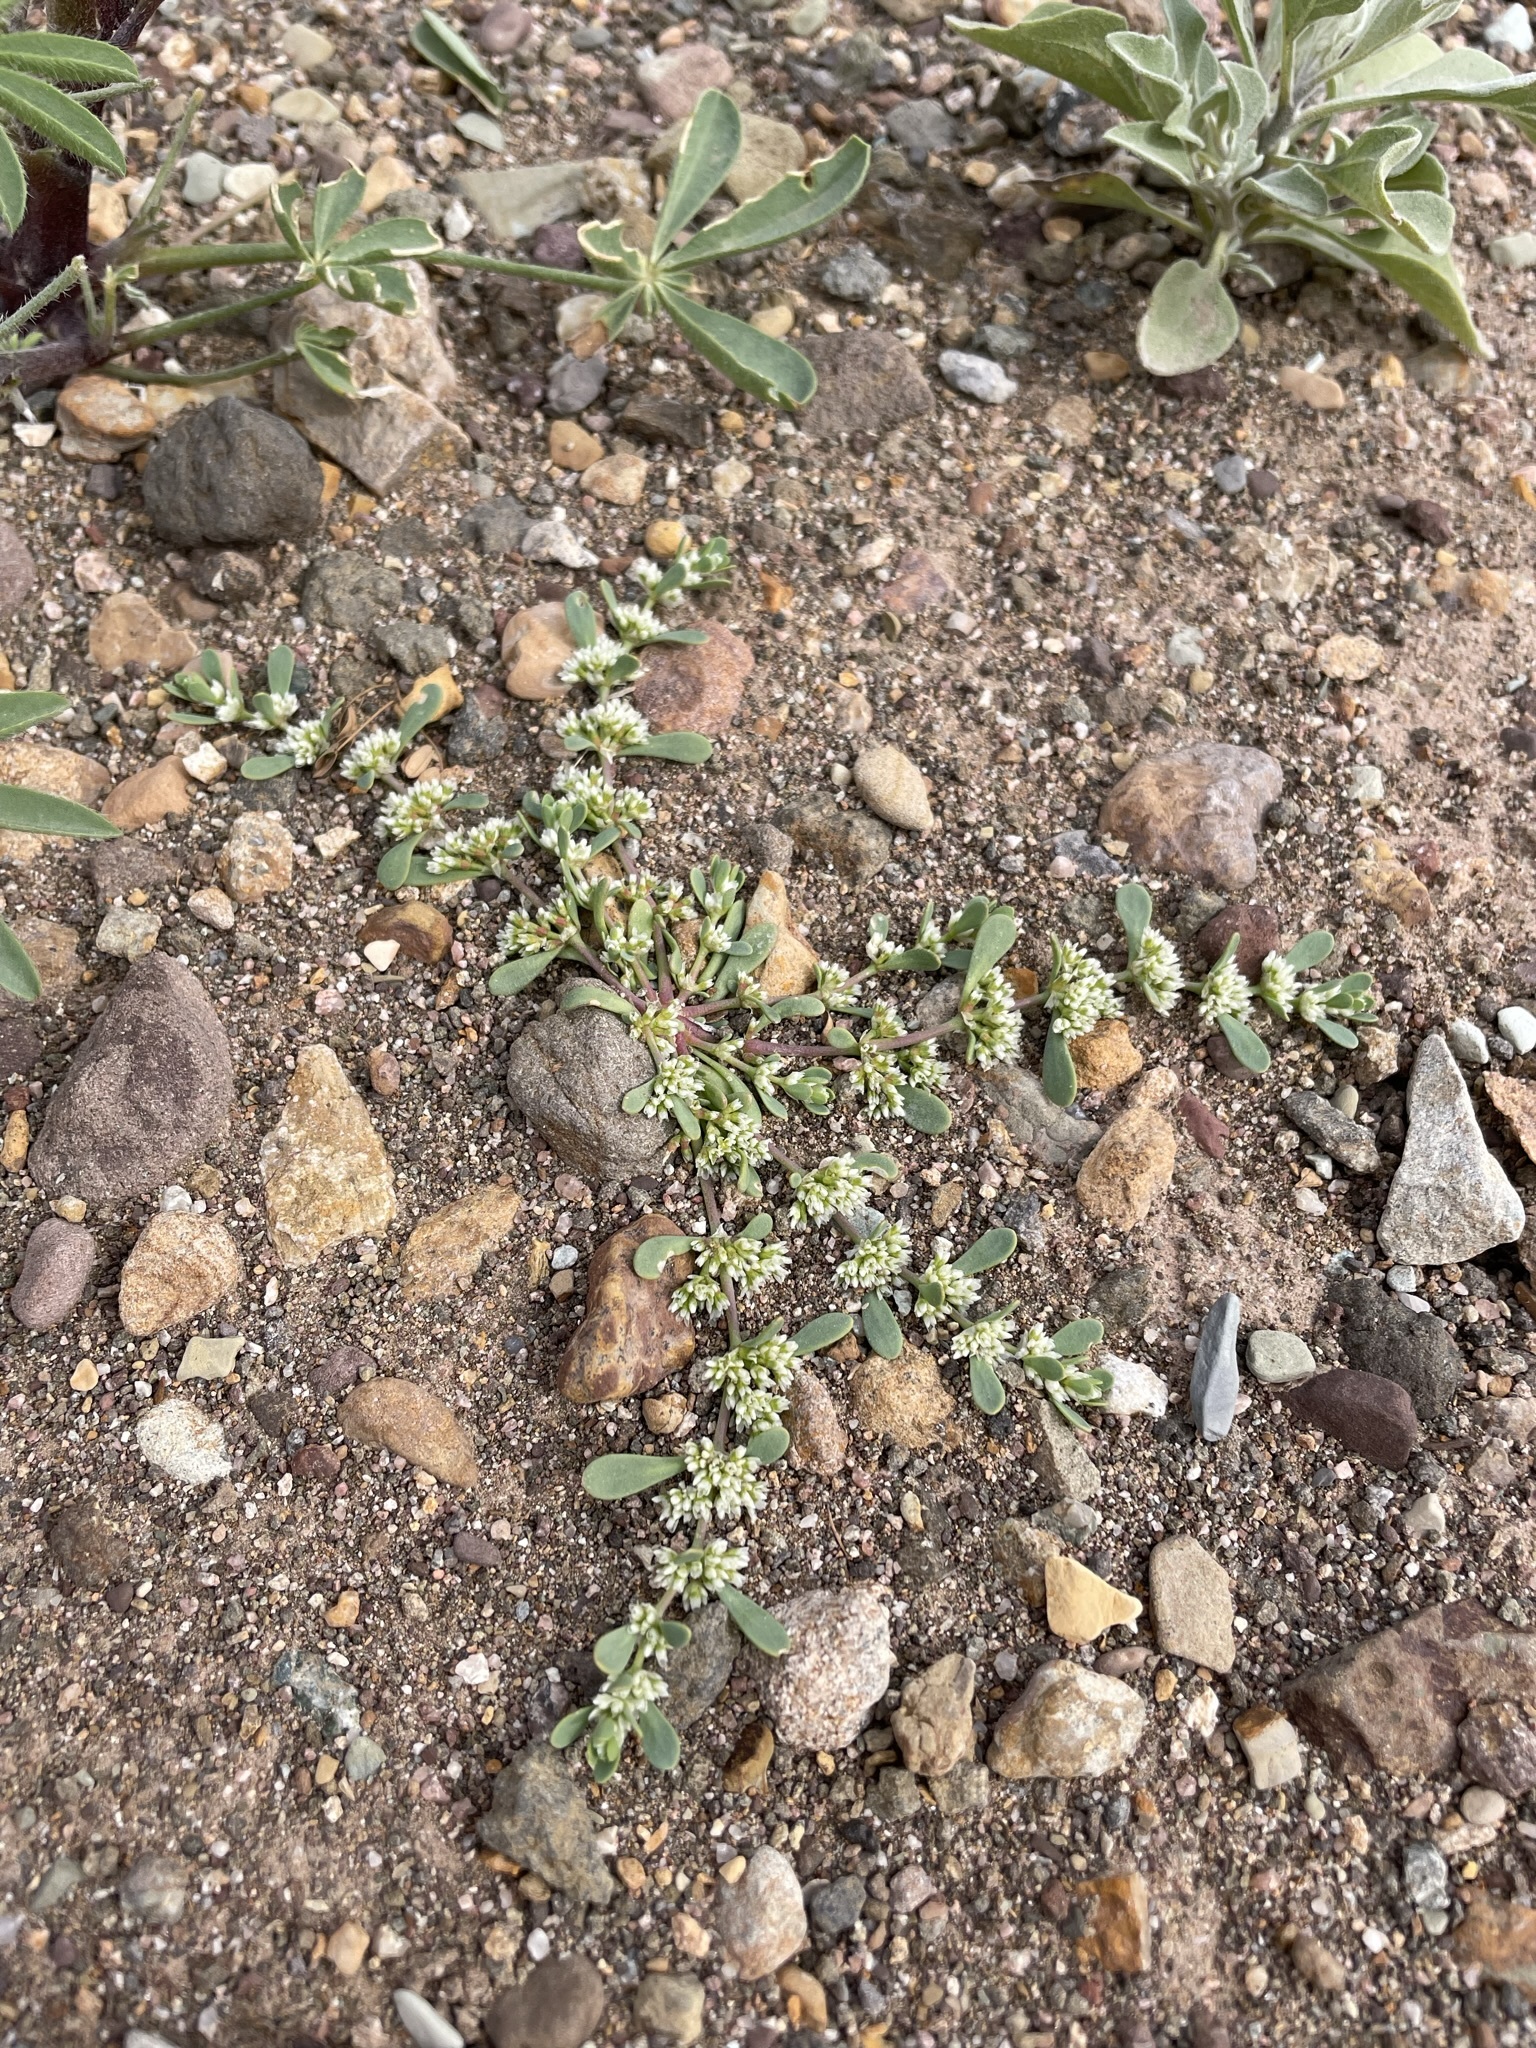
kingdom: Plantae
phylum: Tracheophyta
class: Magnoliopsida
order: Caryophyllales
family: Caryophyllaceae
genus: Achyronychia
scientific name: Achyronychia cooperi
